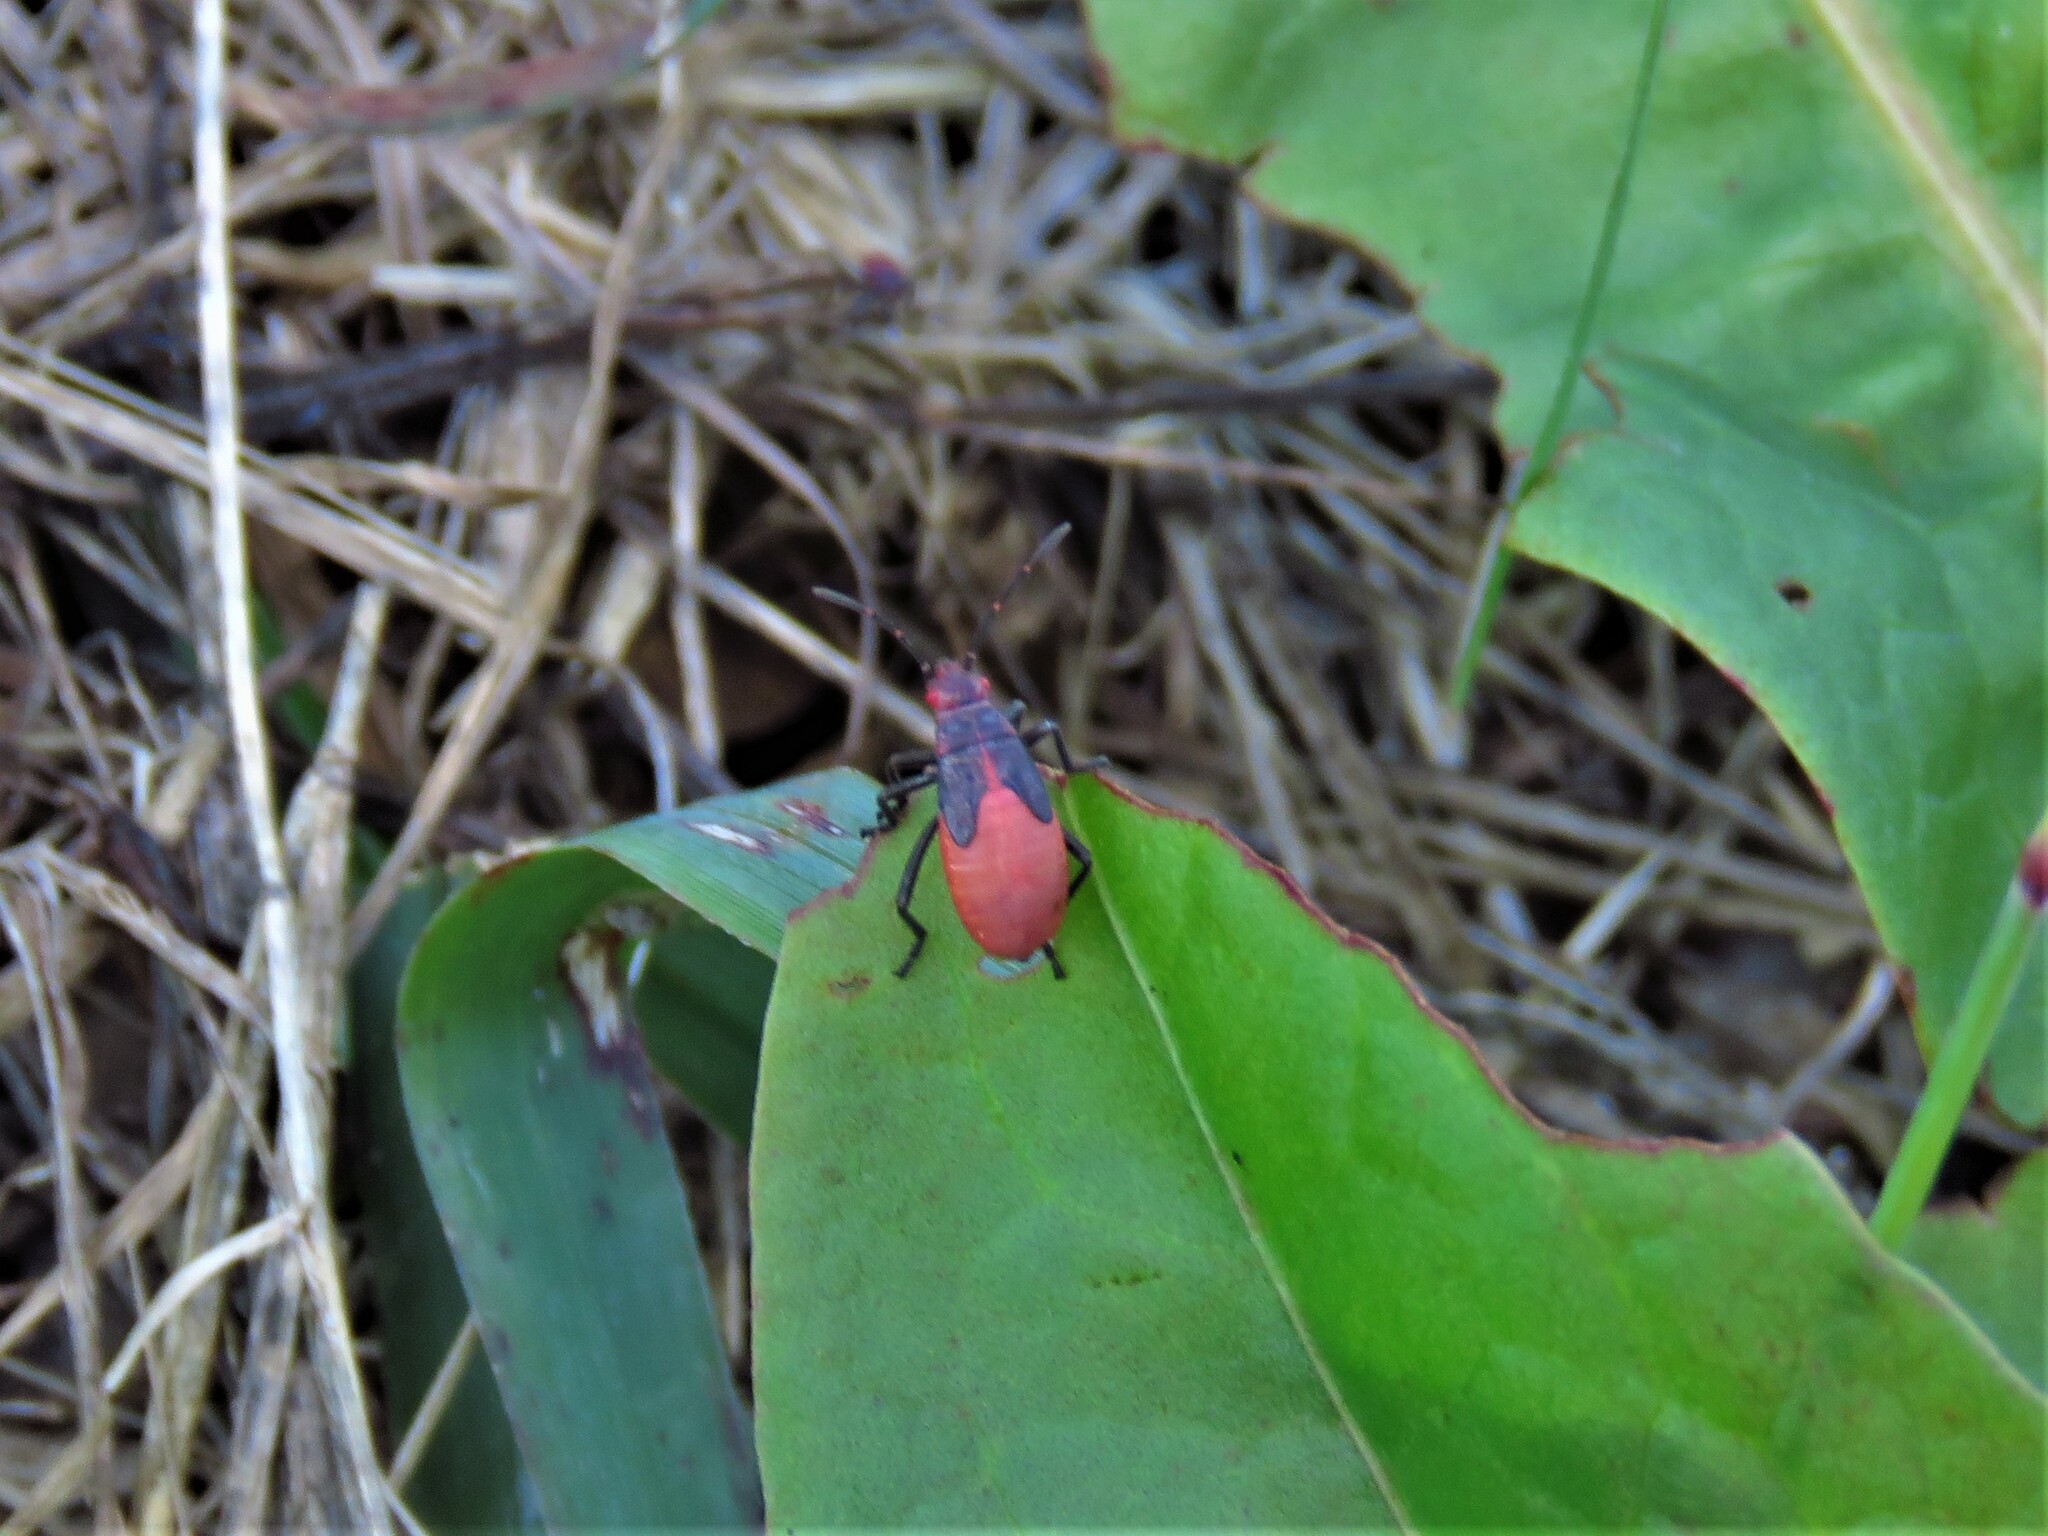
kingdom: Animalia
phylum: Arthropoda
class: Insecta
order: Hemiptera
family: Rhopalidae
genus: Jadera
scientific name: Jadera haematoloma
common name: Red-shouldered bug
